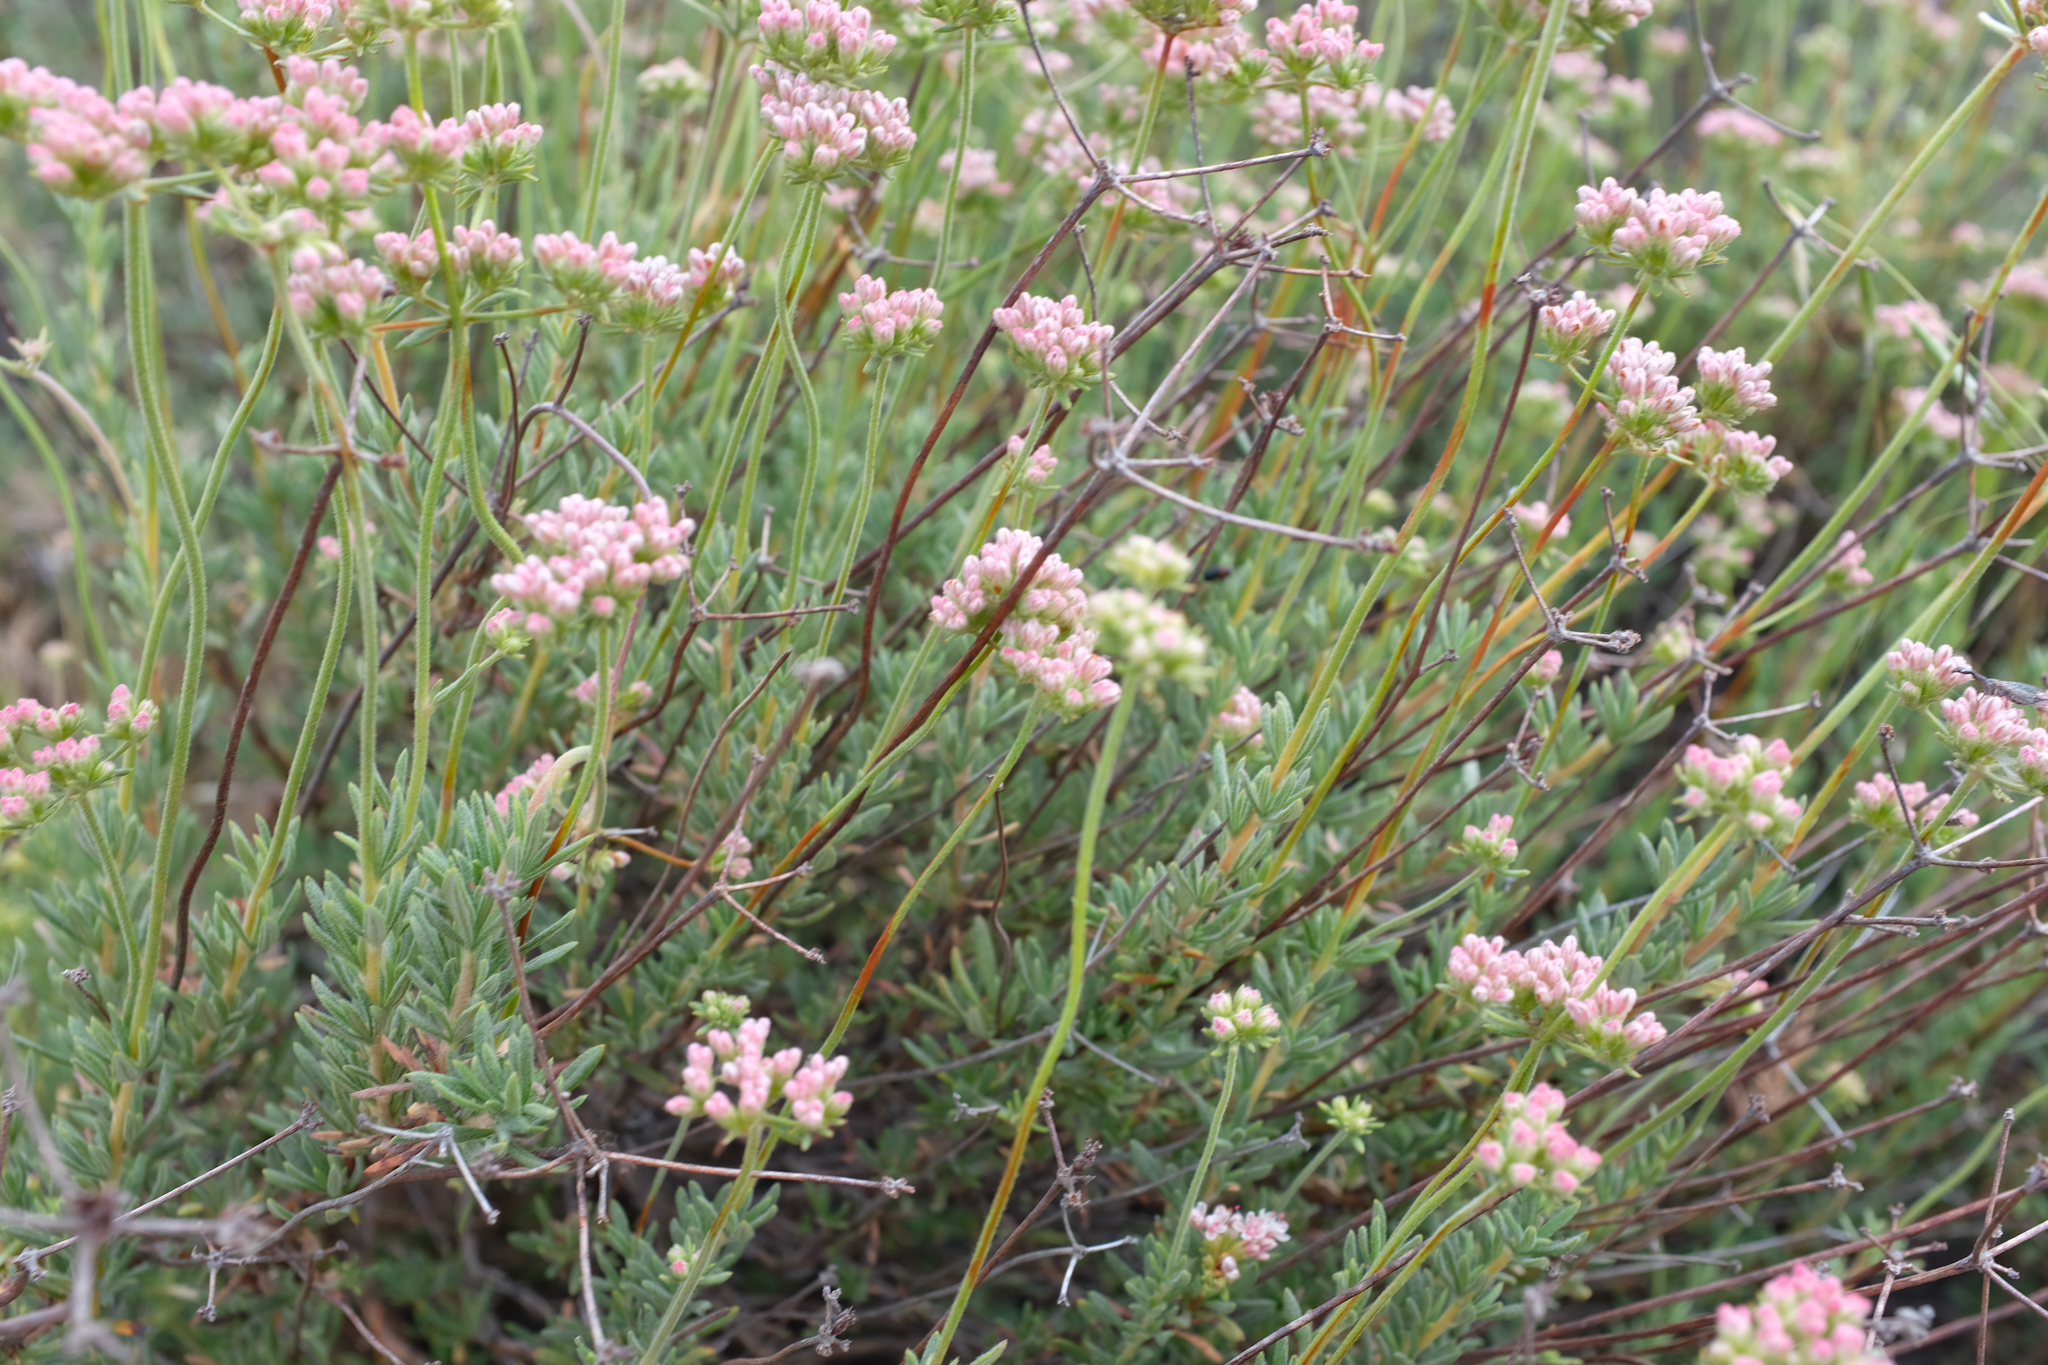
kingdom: Plantae
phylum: Tracheophyta
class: Magnoliopsida
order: Caryophyllales
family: Polygonaceae
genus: Eriogonum
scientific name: Eriogonum fasciculatum
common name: California wild buckwheat
